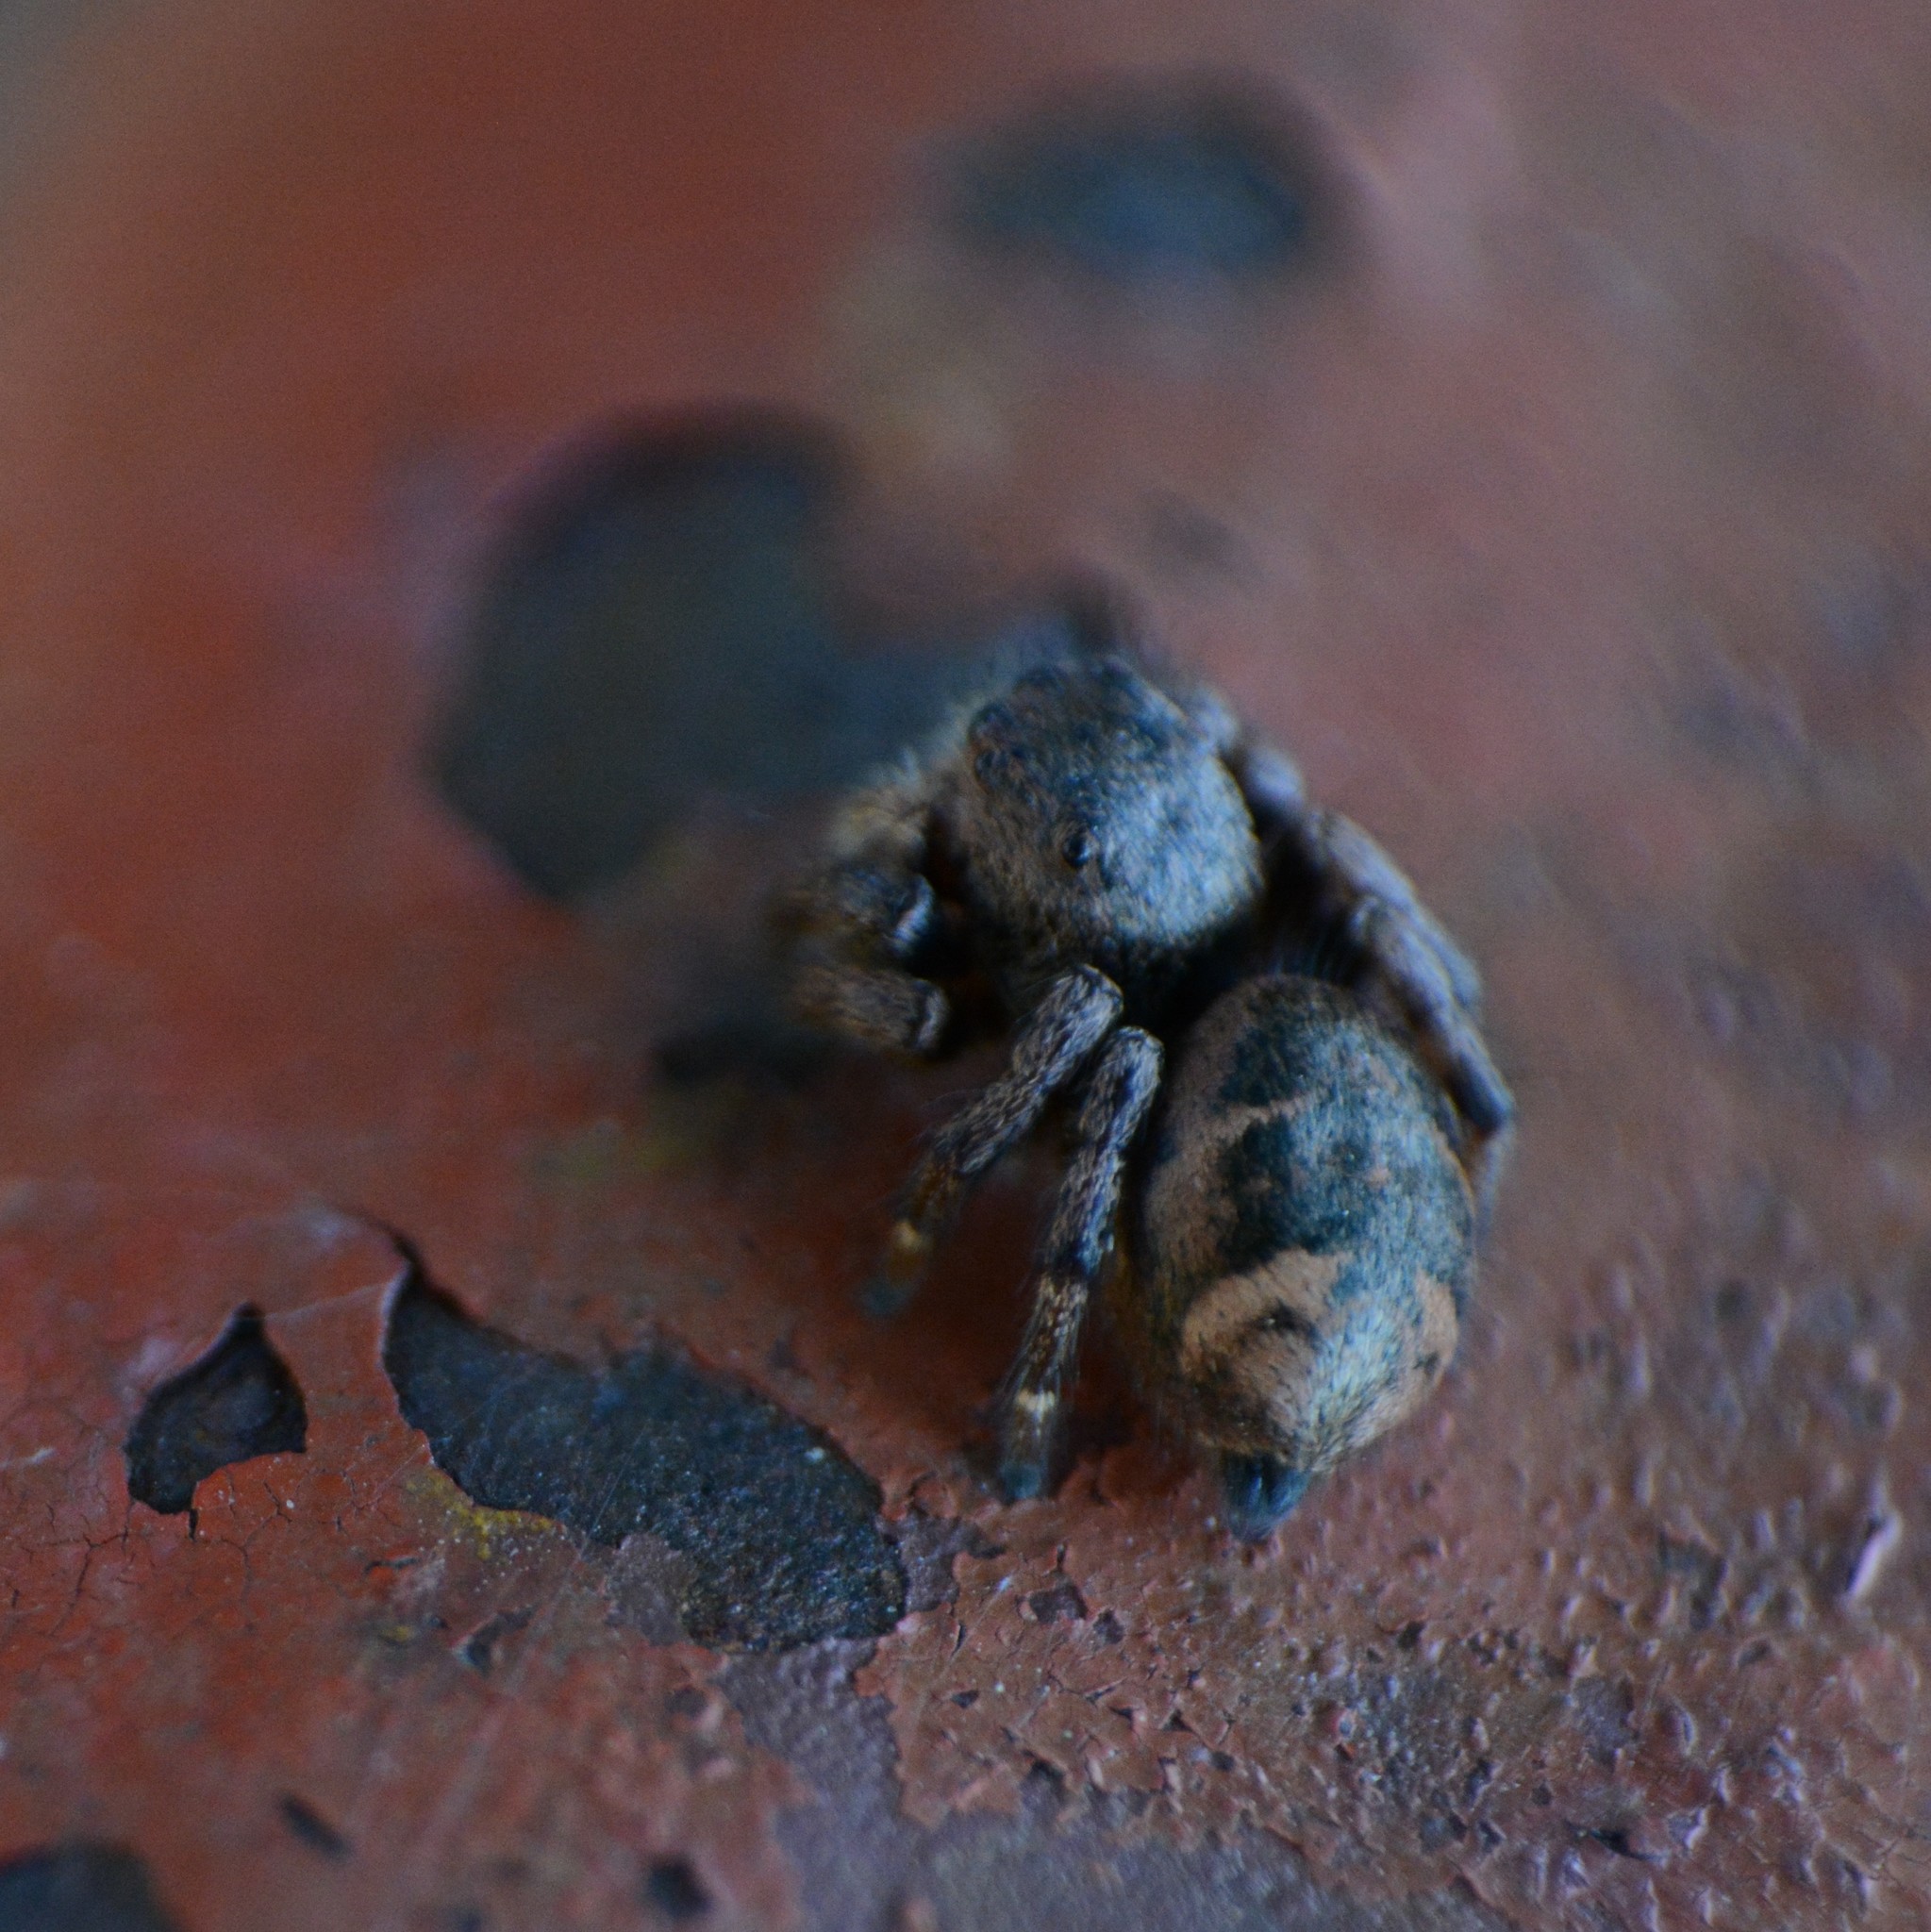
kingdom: Animalia
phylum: Arthropoda
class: Arachnida
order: Araneae
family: Salticidae
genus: Baryphas
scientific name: Baryphas ahenus
